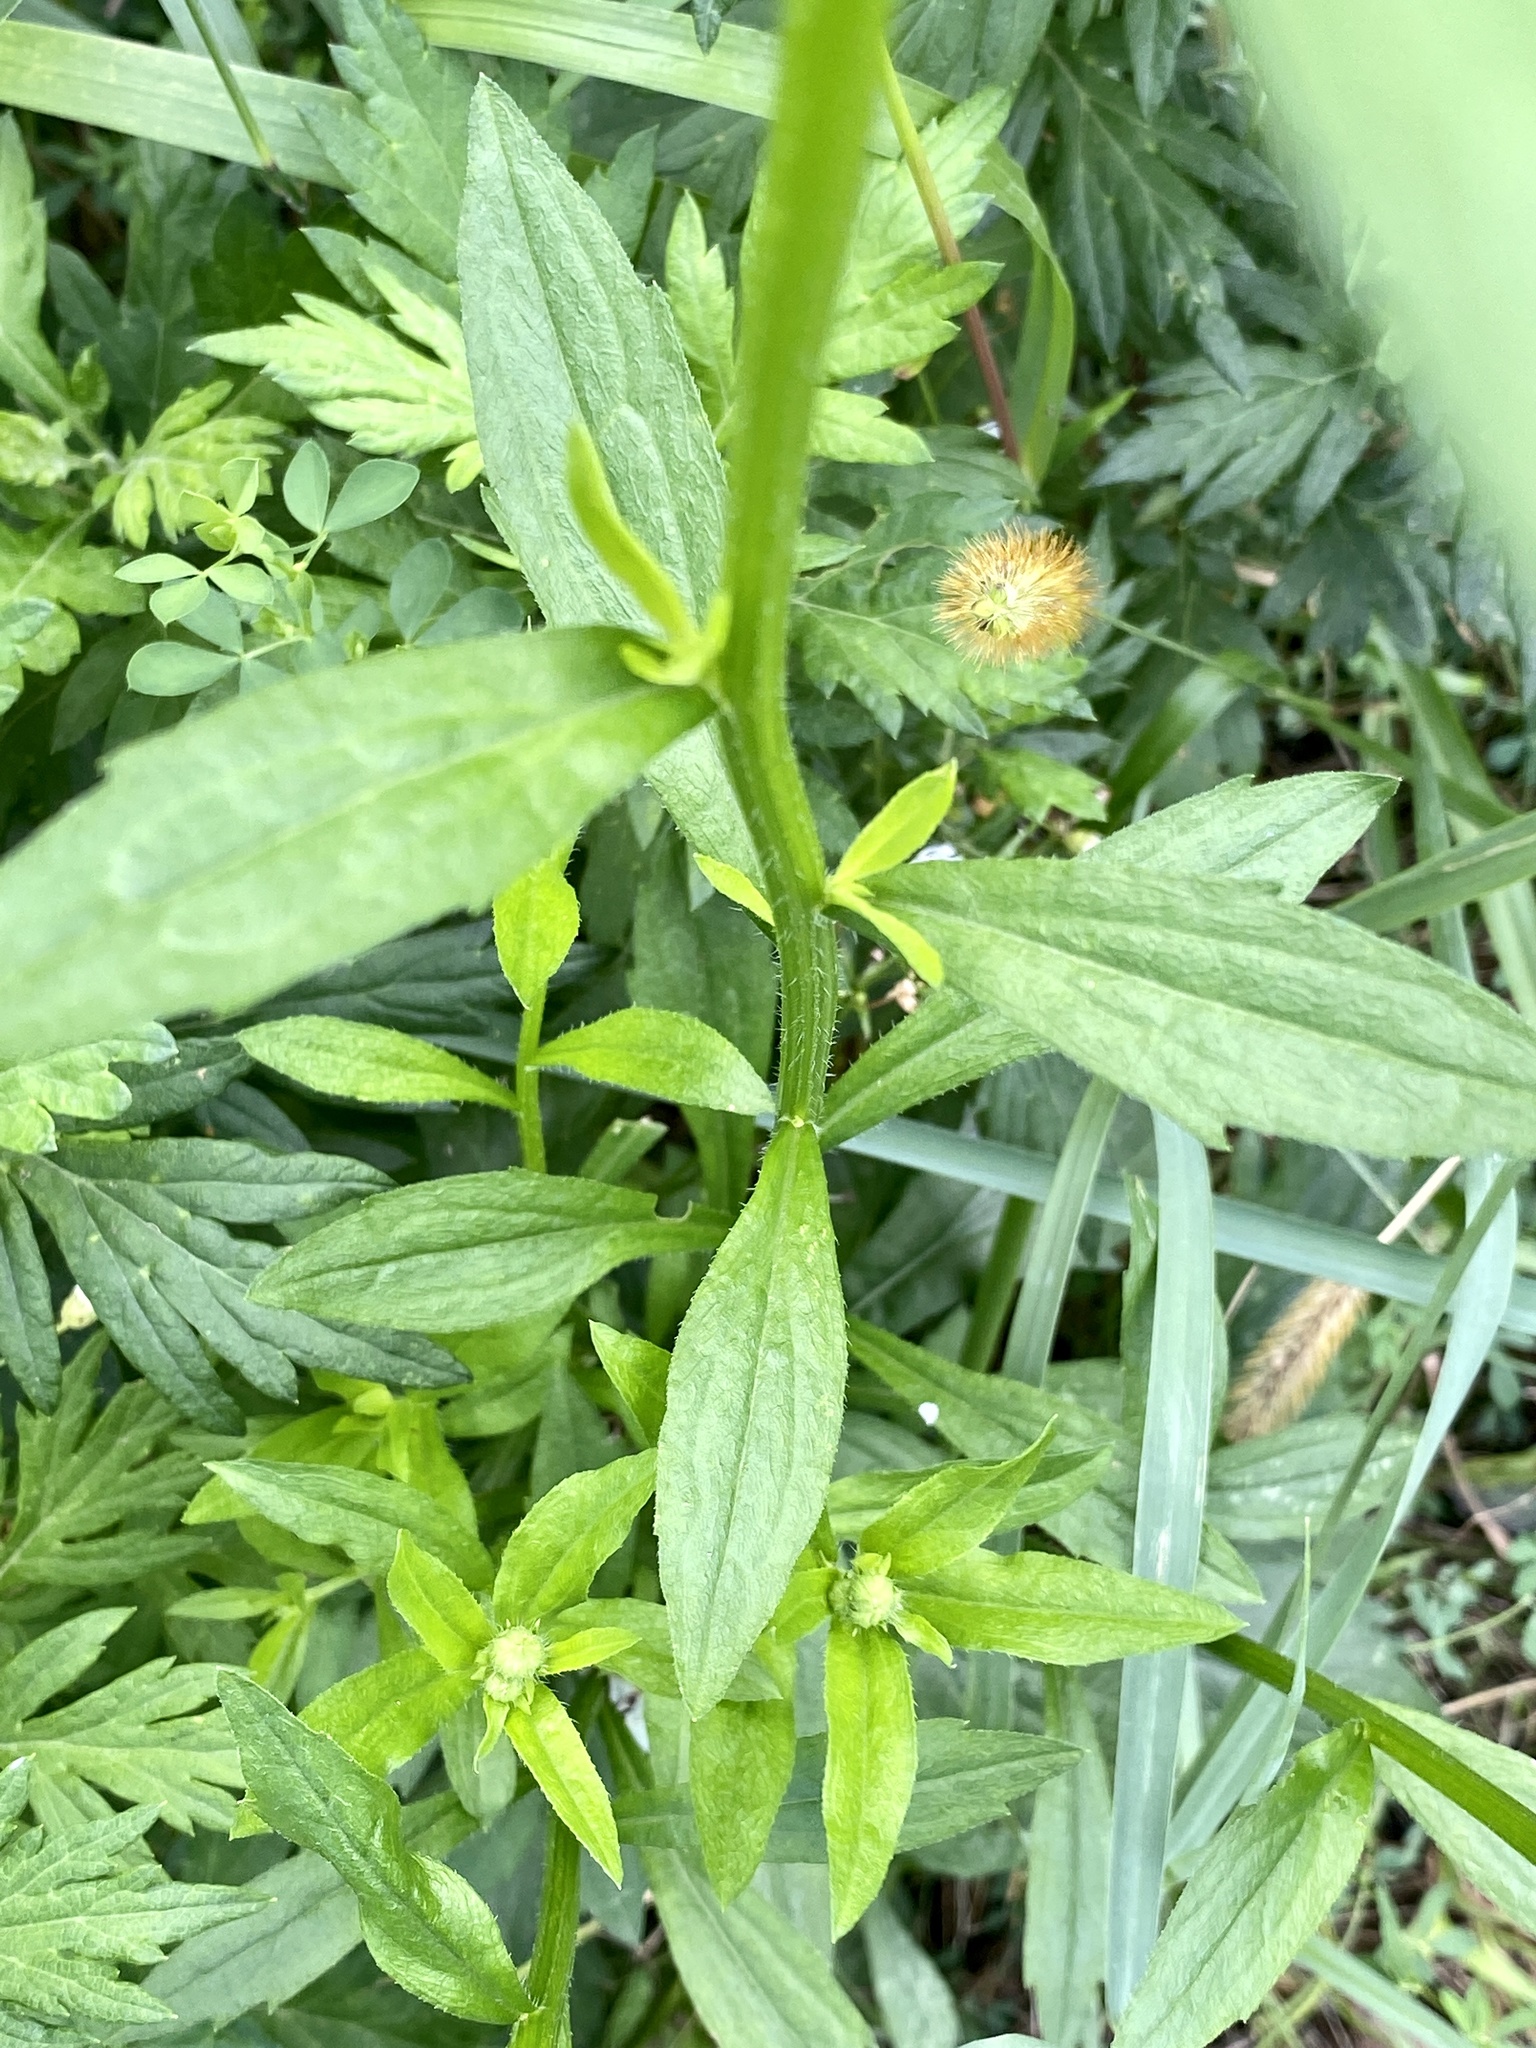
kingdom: Plantae
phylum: Tracheophyta
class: Magnoliopsida
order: Asterales
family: Asteraceae
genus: Erigeron
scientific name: Erigeron annuus
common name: Tall fleabane
